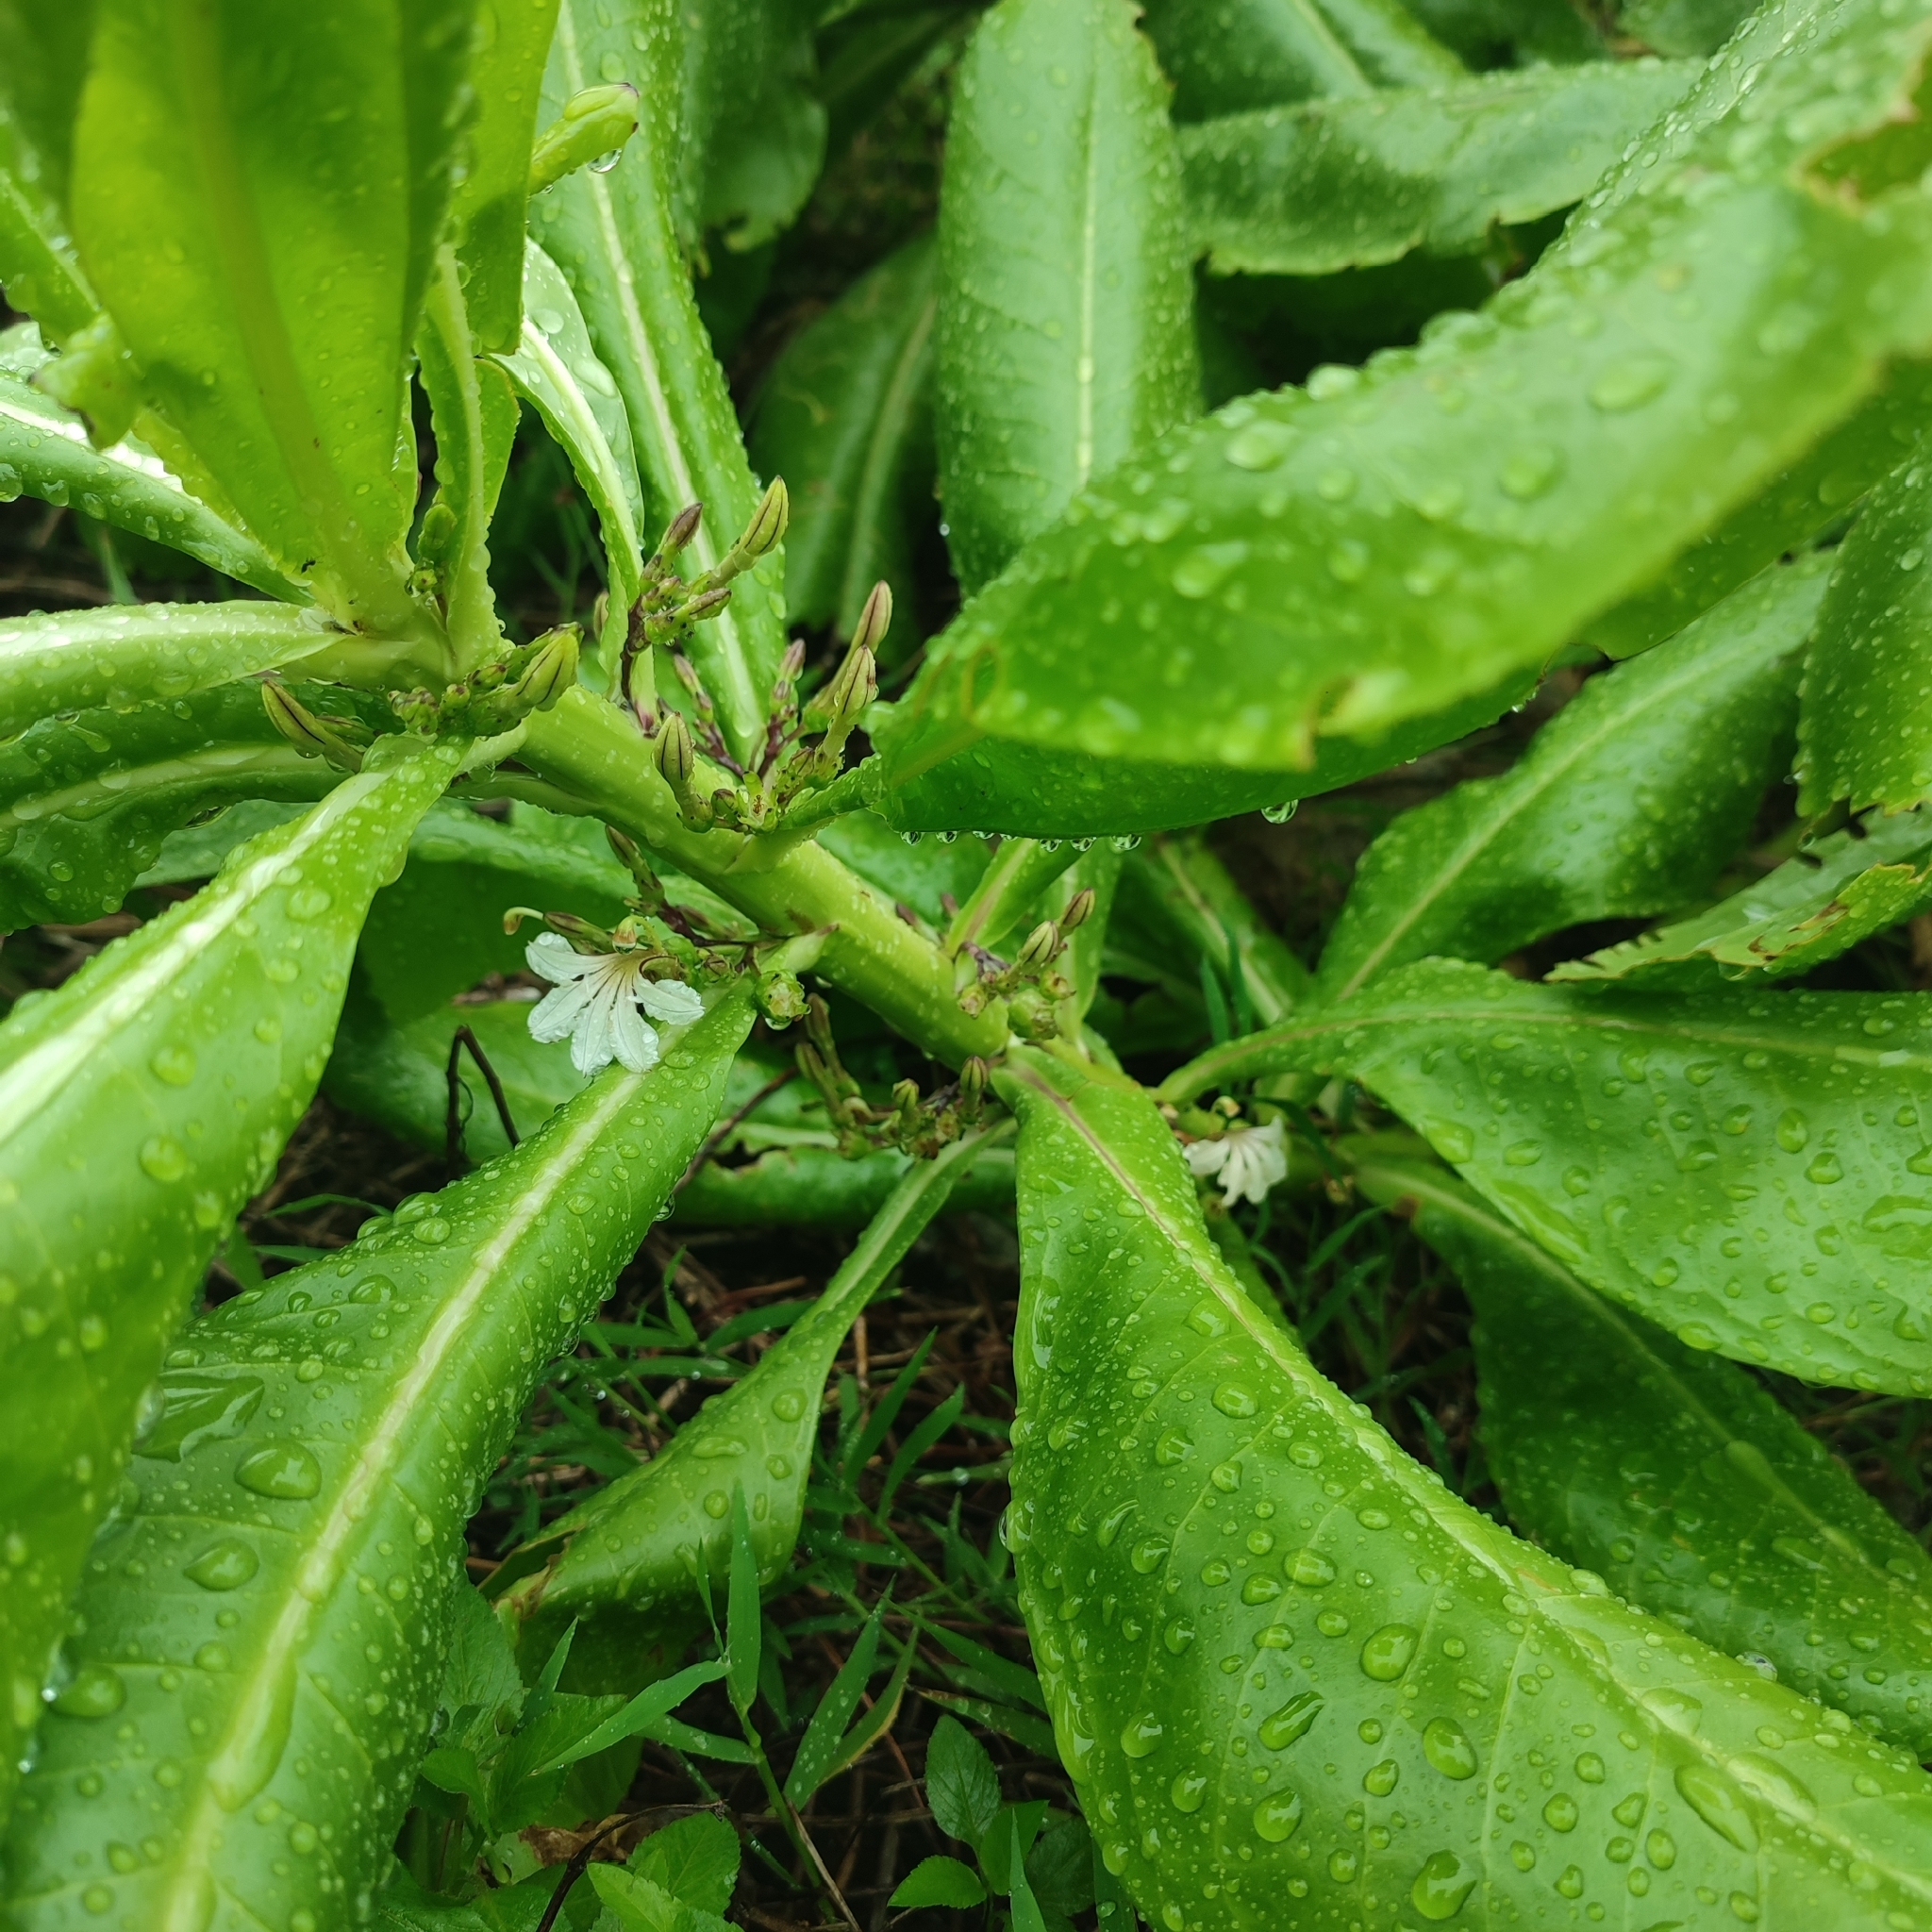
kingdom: Plantae
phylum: Tracheophyta
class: Magnoliopsida
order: Asterales
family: Goodeniaceae
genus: Scaevola
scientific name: Scaevola taccada
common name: Sea lettucetree
